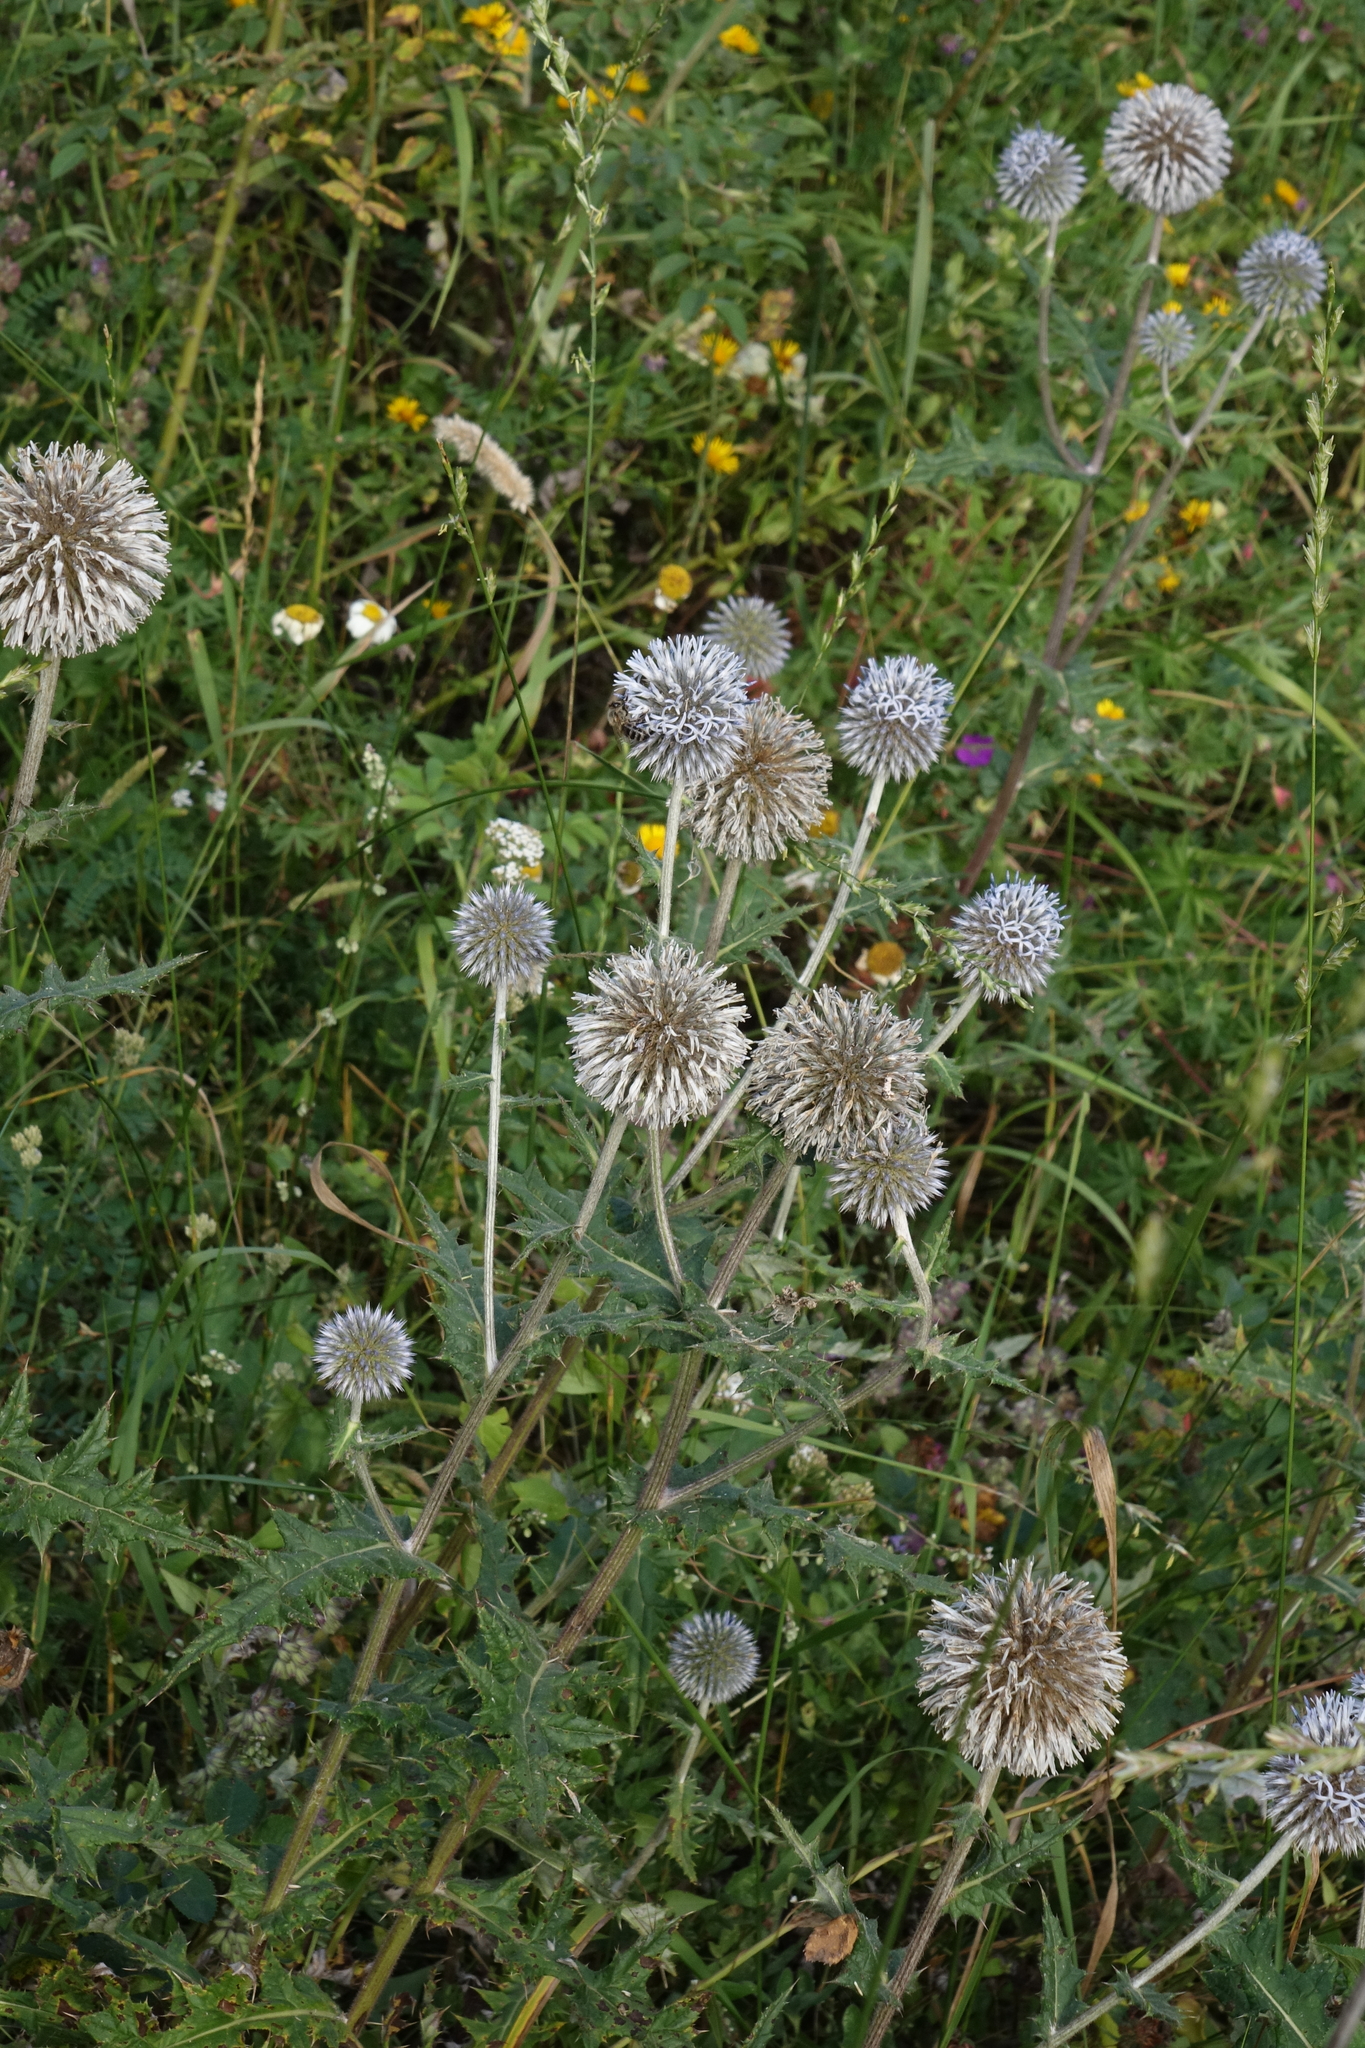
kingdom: Plantae
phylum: Tracheophyta
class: Magnoliopsida
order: Asterales
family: Asteraceae
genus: Echinops
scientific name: Echinops sphaerocephalus
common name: Glandular globe-thistle
